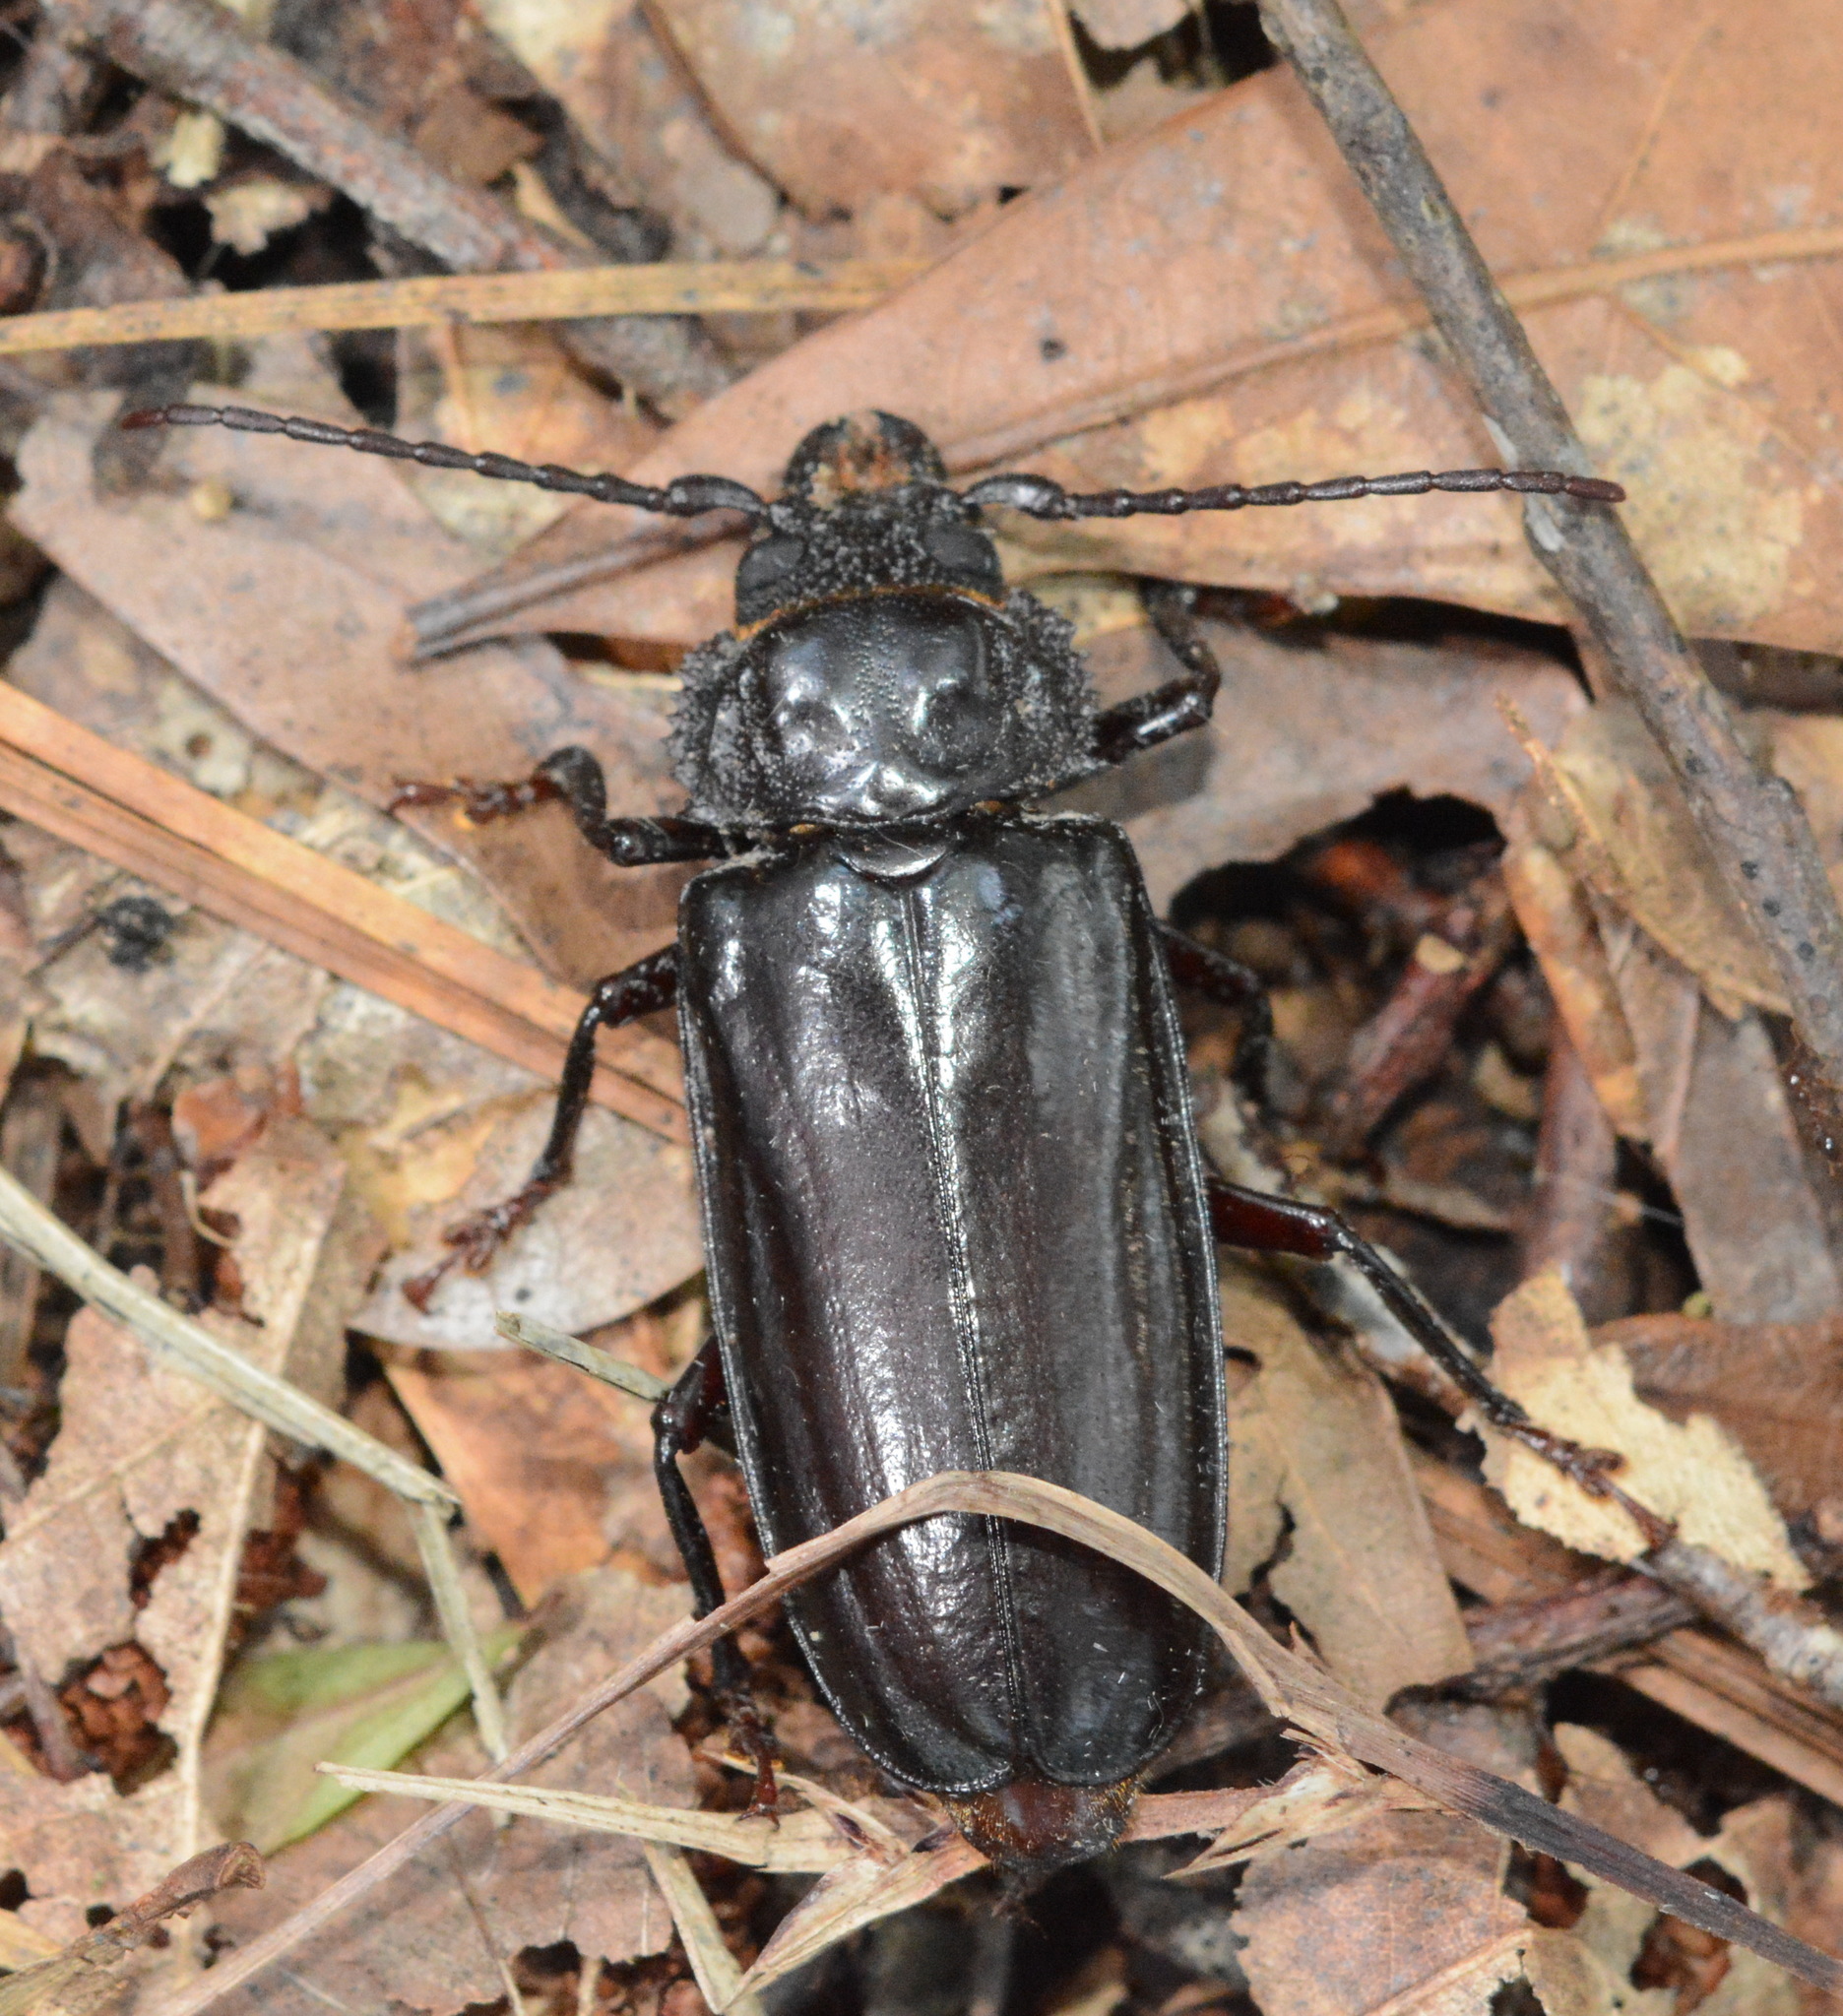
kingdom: Animalia
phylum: Arthropoda
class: Insecta
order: Coleoptera
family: Cerambycidae
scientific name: Cerambycidae
